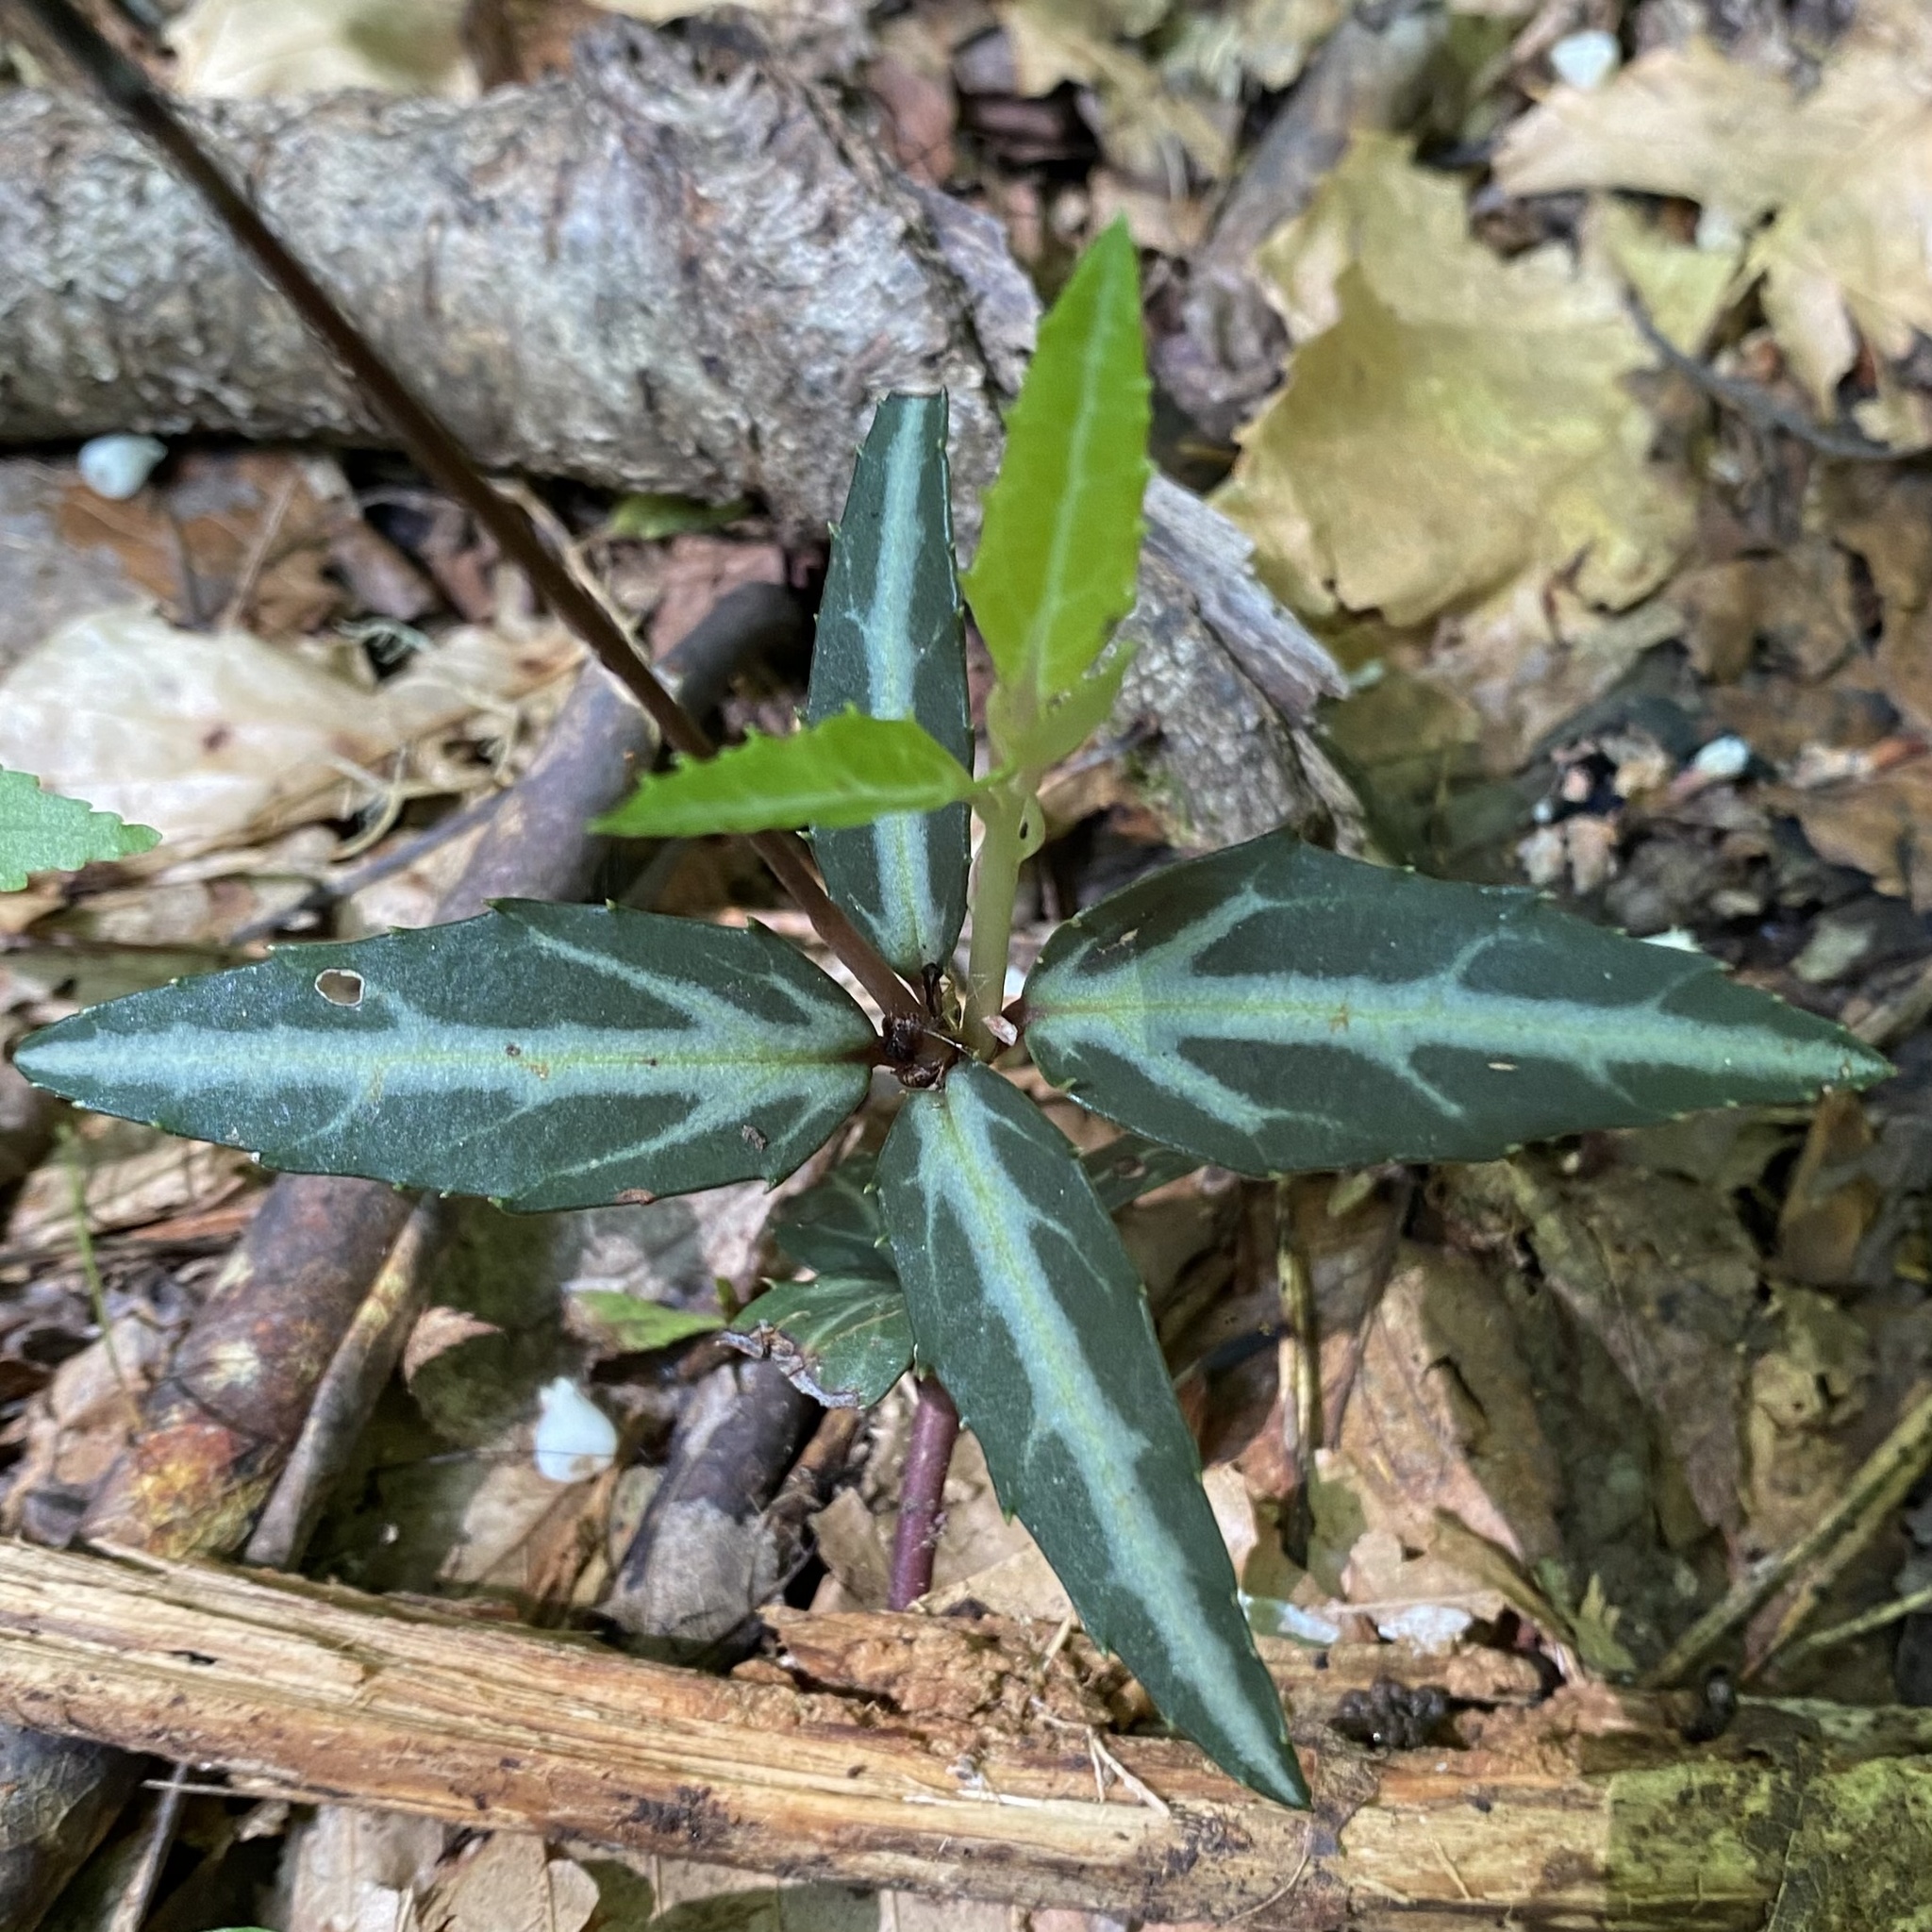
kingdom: Plantae
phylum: Tracheophyta
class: Magnoliopsida
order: Ericales
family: Ericaceae
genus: Chimaphila
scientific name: Chimaphila maculata
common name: Spotted pipsissewa
